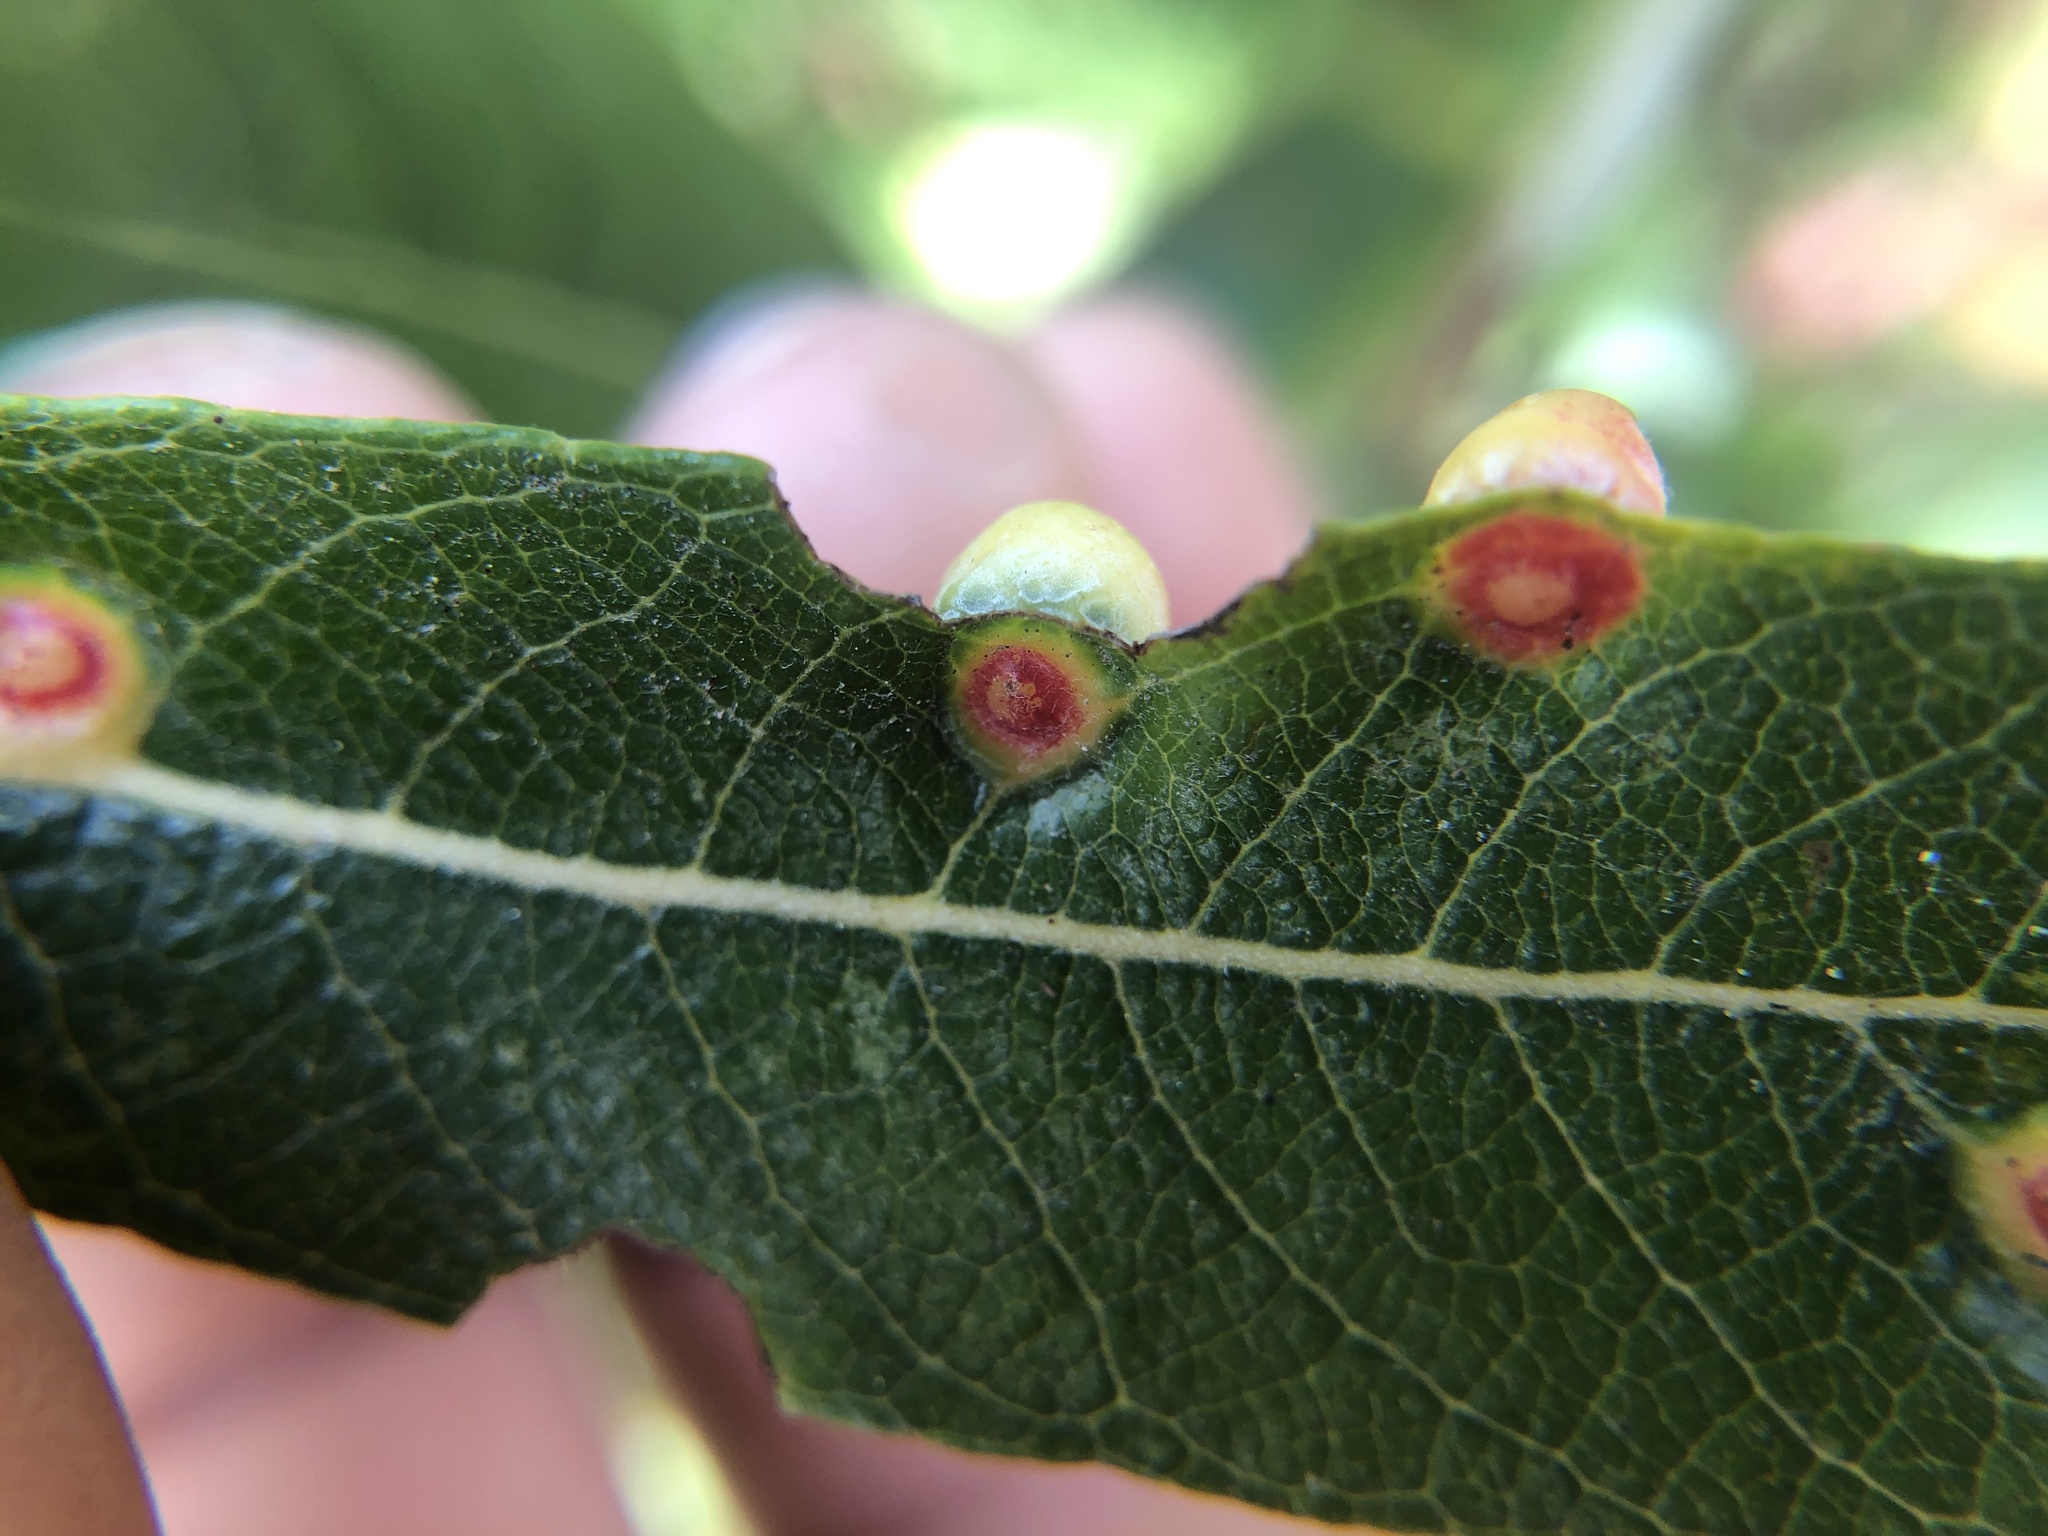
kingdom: Animalia
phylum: Arthropoda
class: Insecta
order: Hymenoptera
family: Tenthredinidae
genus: Euura
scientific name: Euura
